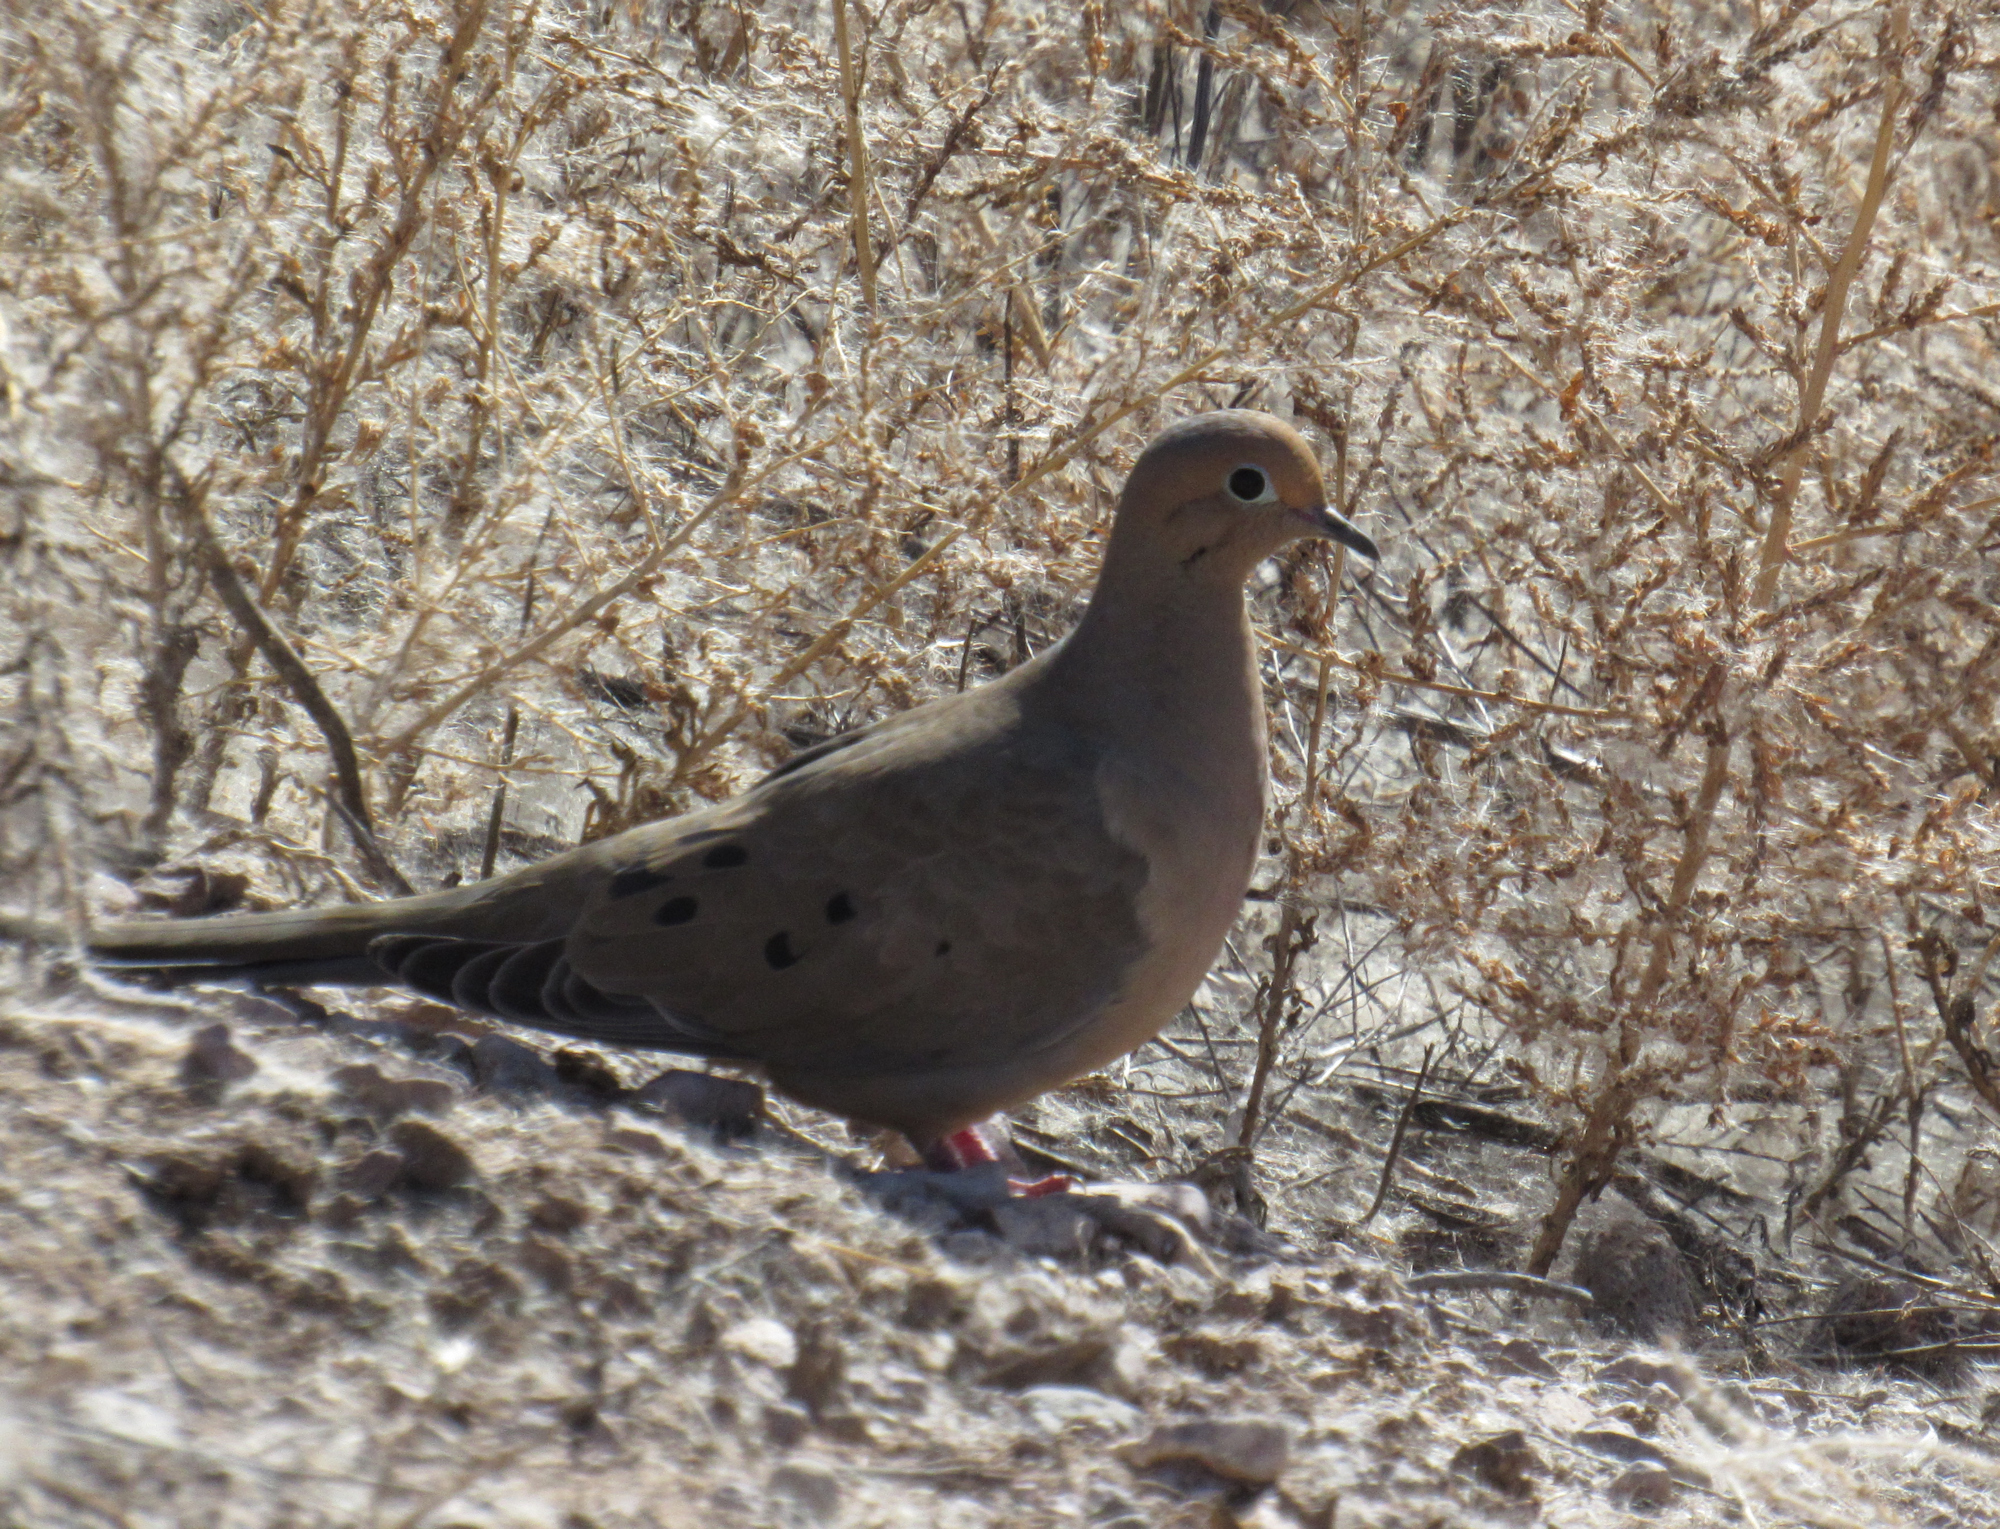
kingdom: Animalia
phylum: Chordata
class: Aves
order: Columbiformes
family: Columbidae
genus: Zenaida
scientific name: Zenaida macroura
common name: Mourning dove
